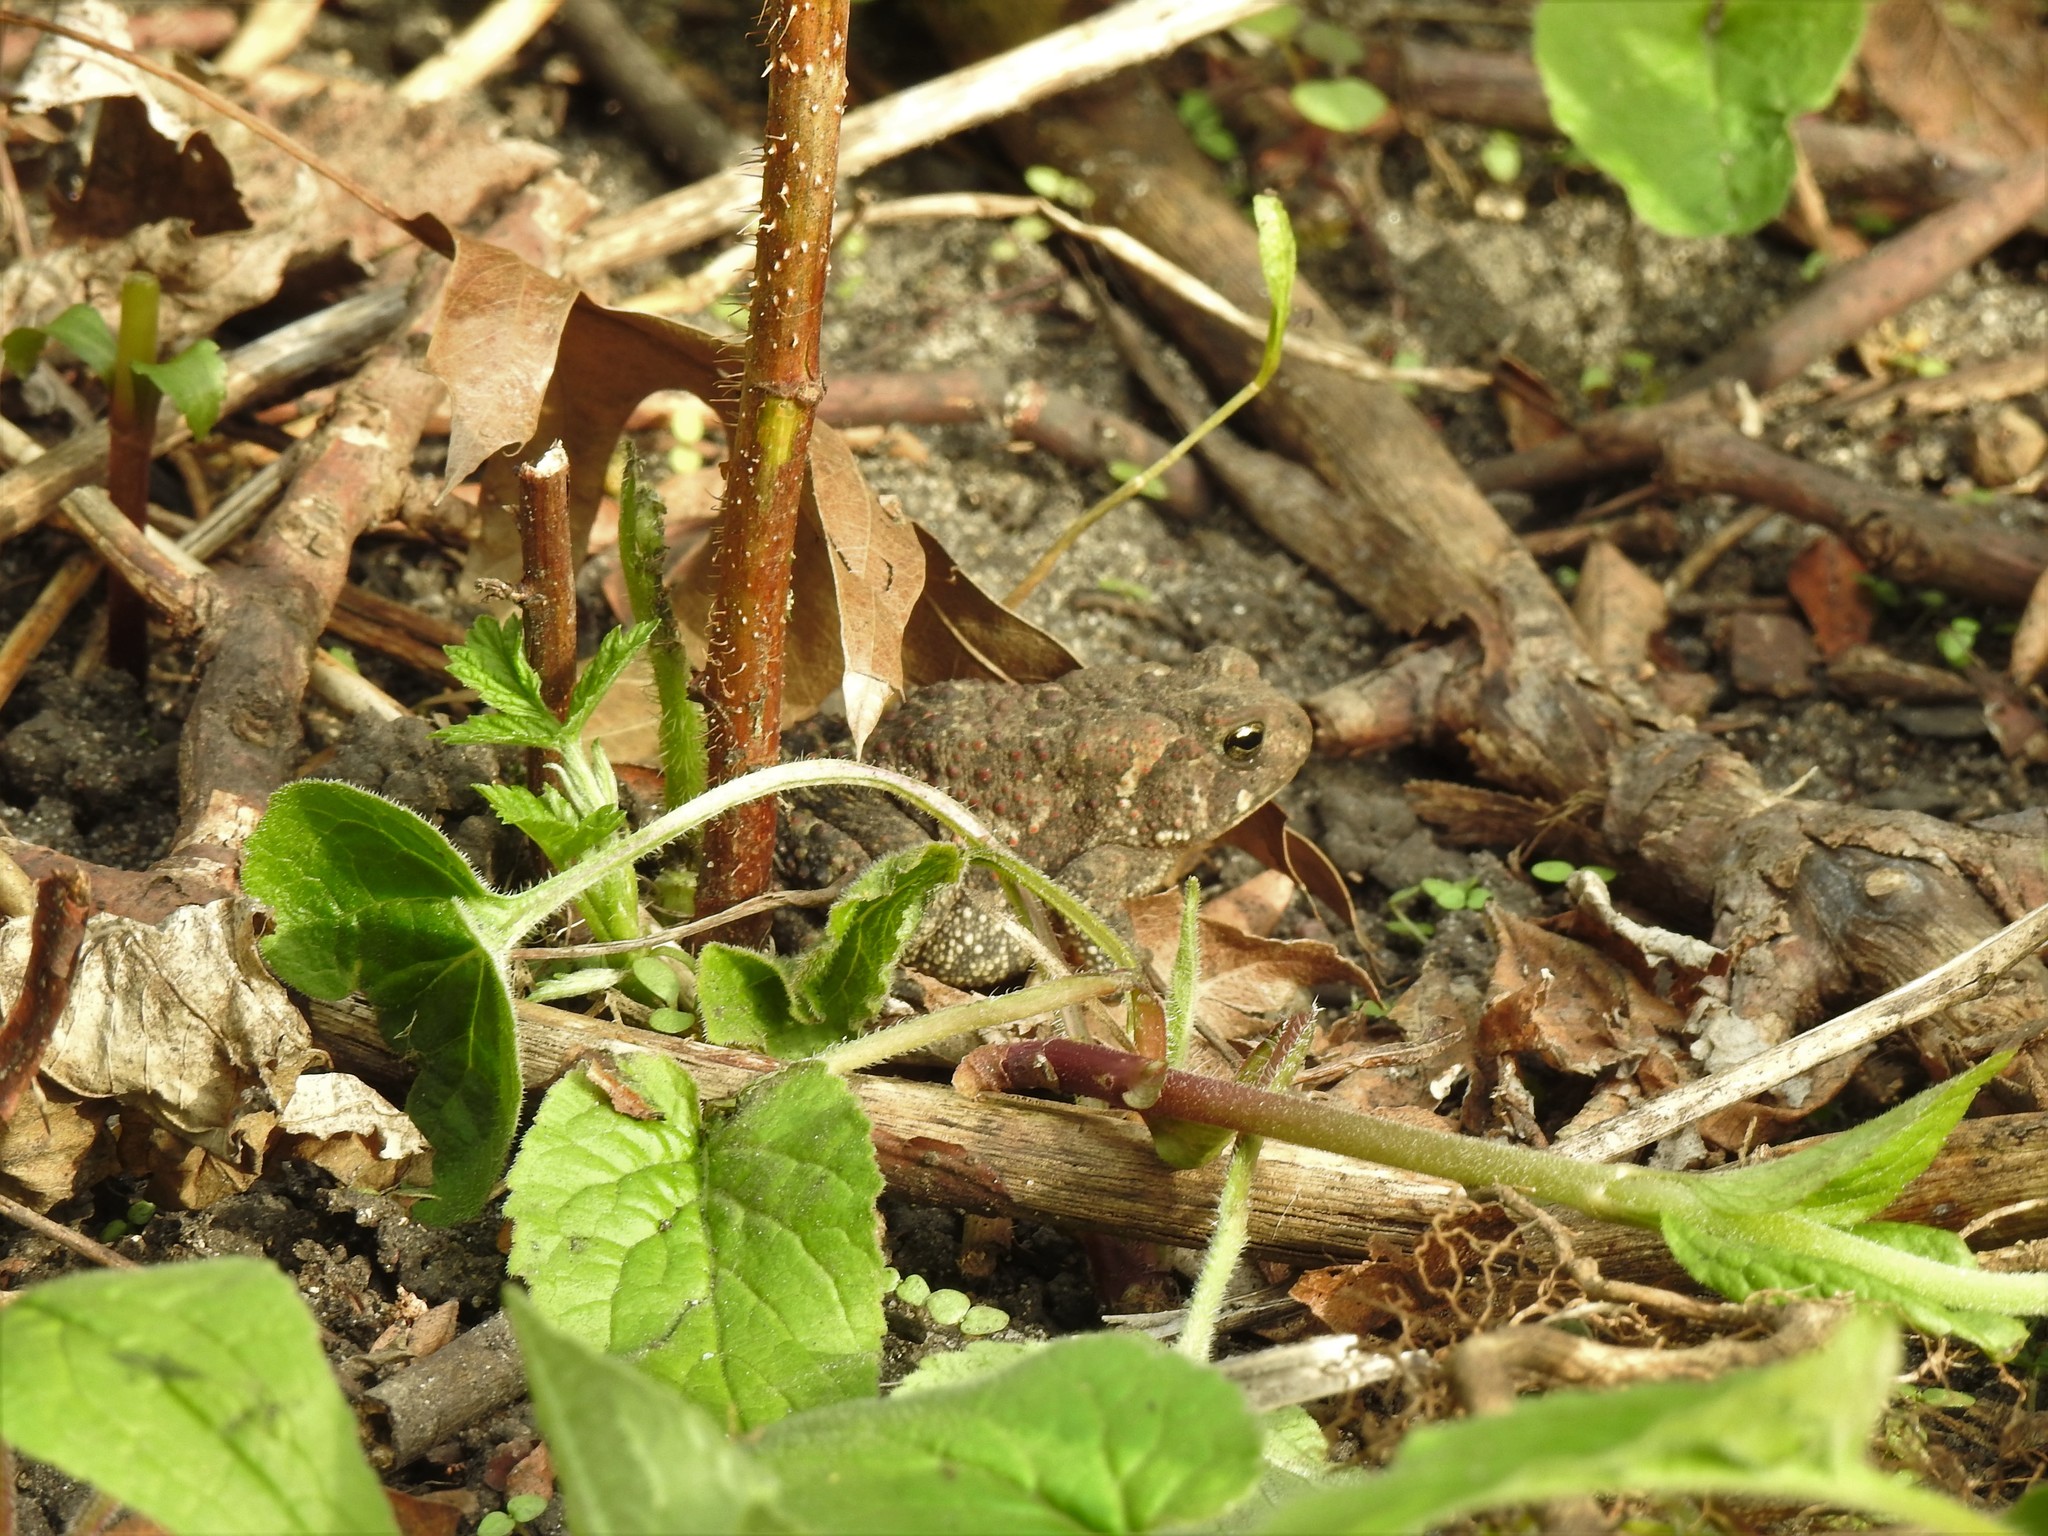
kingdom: Animalia
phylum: Chordata
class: Amphibia
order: Anura
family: Bufonidae
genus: Anaxyrus
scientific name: Anaxyrus americanus
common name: American toad
